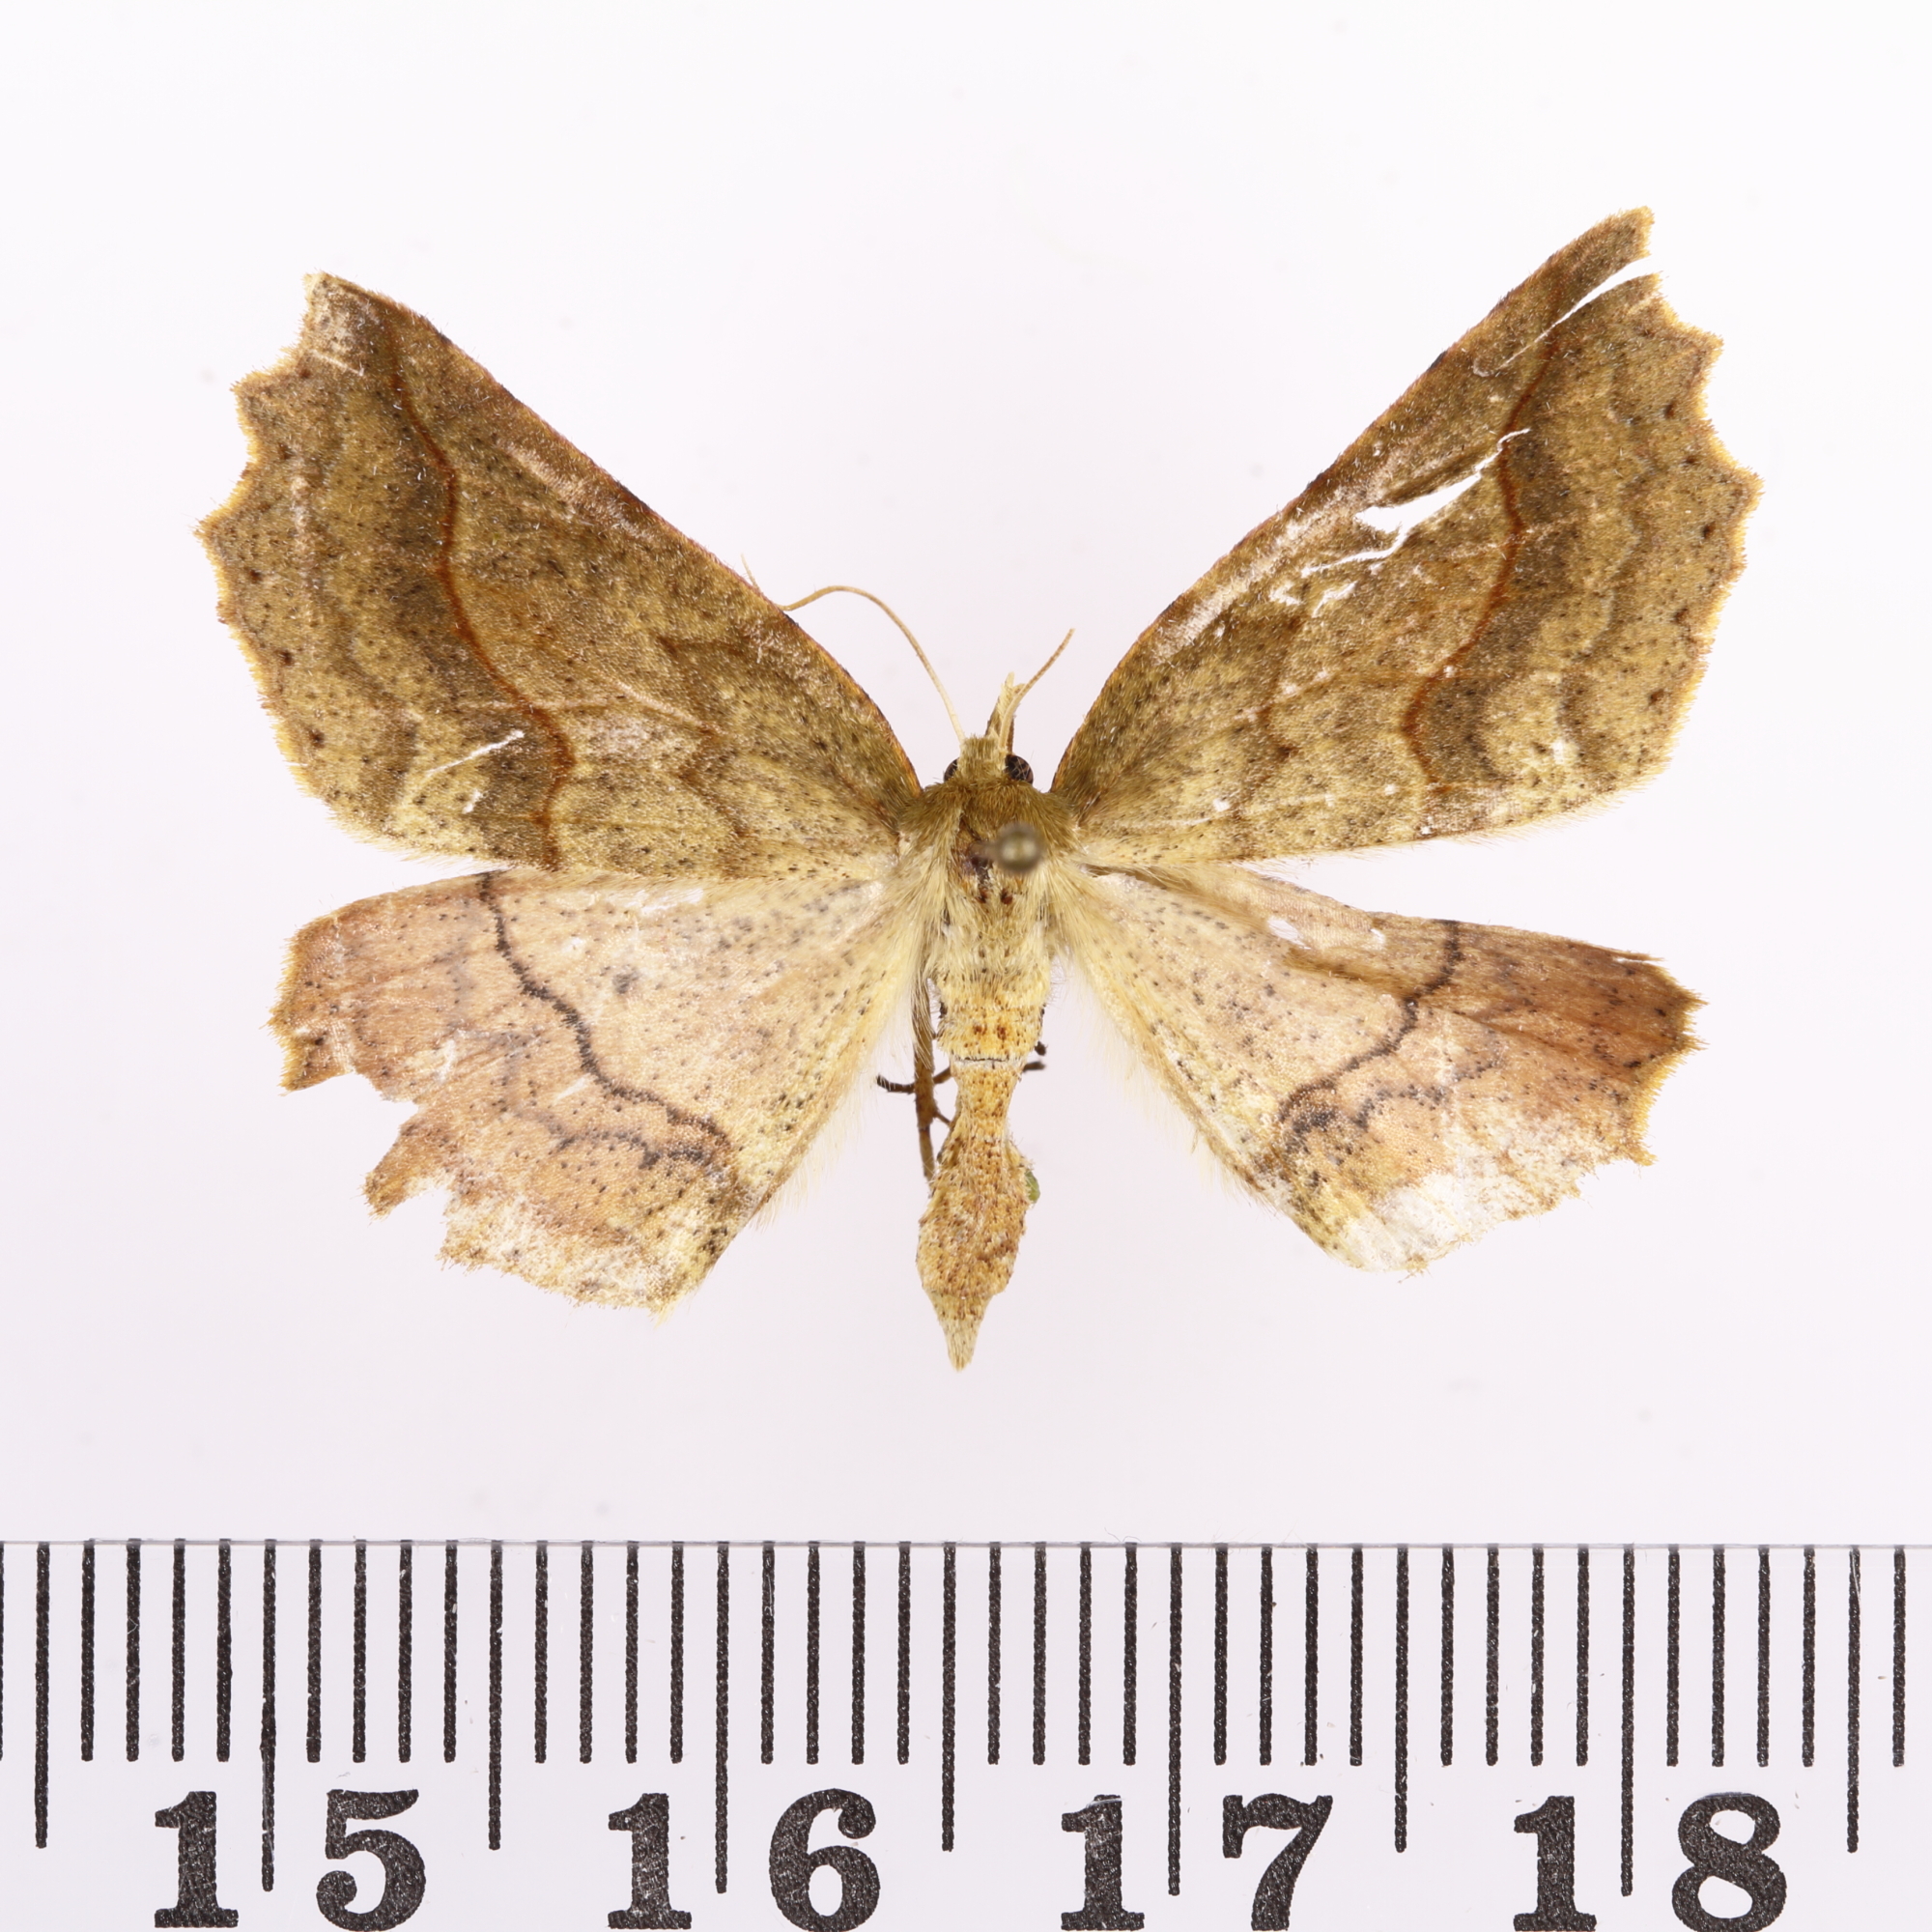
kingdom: Animalia
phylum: Arthropoda
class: Insecta
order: Lepidoptera
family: Geometridae
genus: Ischalis
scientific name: Ischalis gallaria
